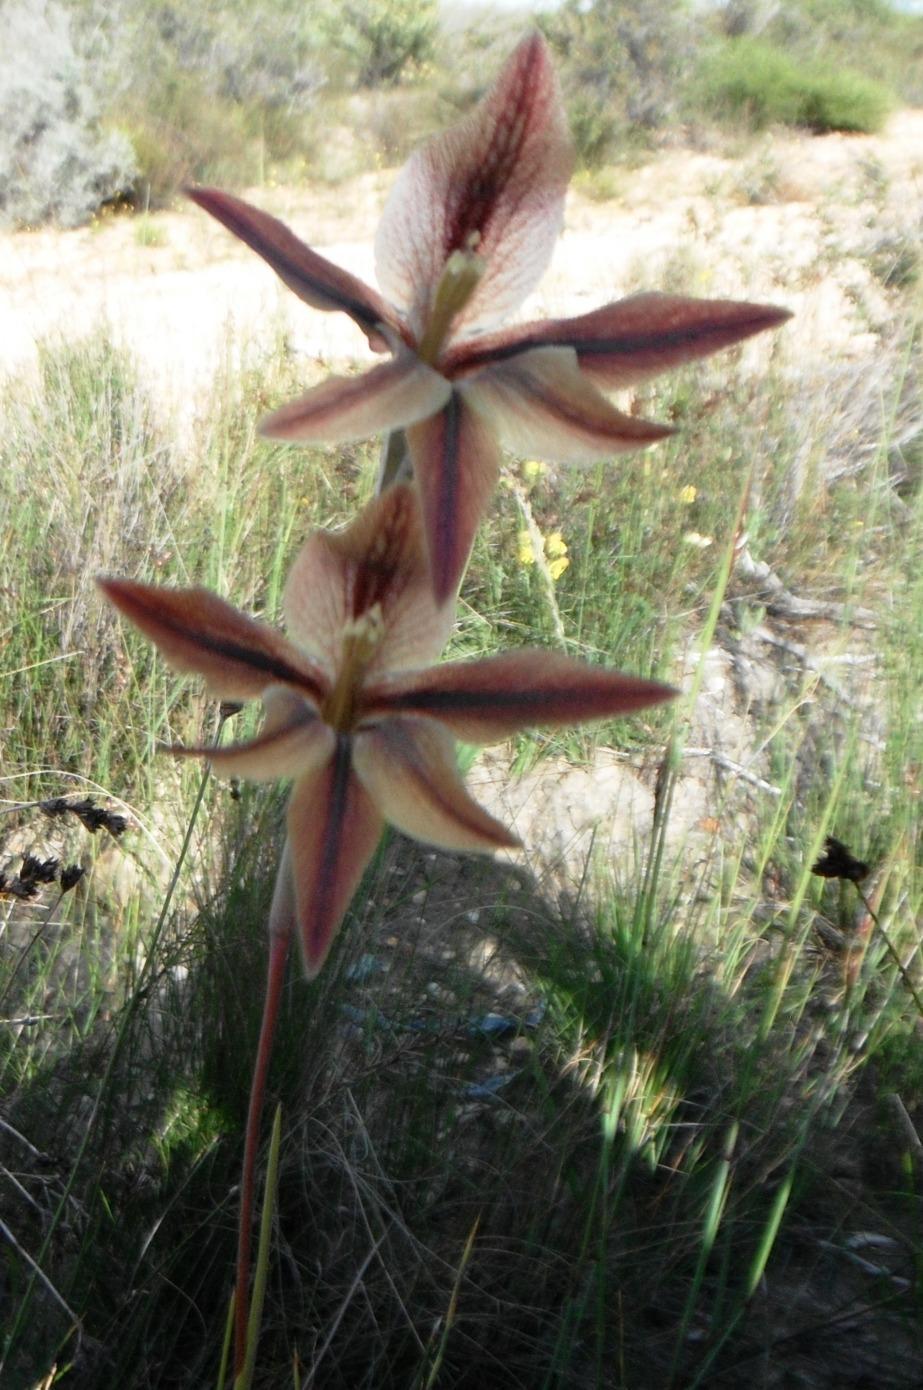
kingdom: Plantae
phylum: Tracheophyta
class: Liliopsida
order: Asparagales
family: Iridaceae
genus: Gladiolus
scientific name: Gladiolus hyalinus
